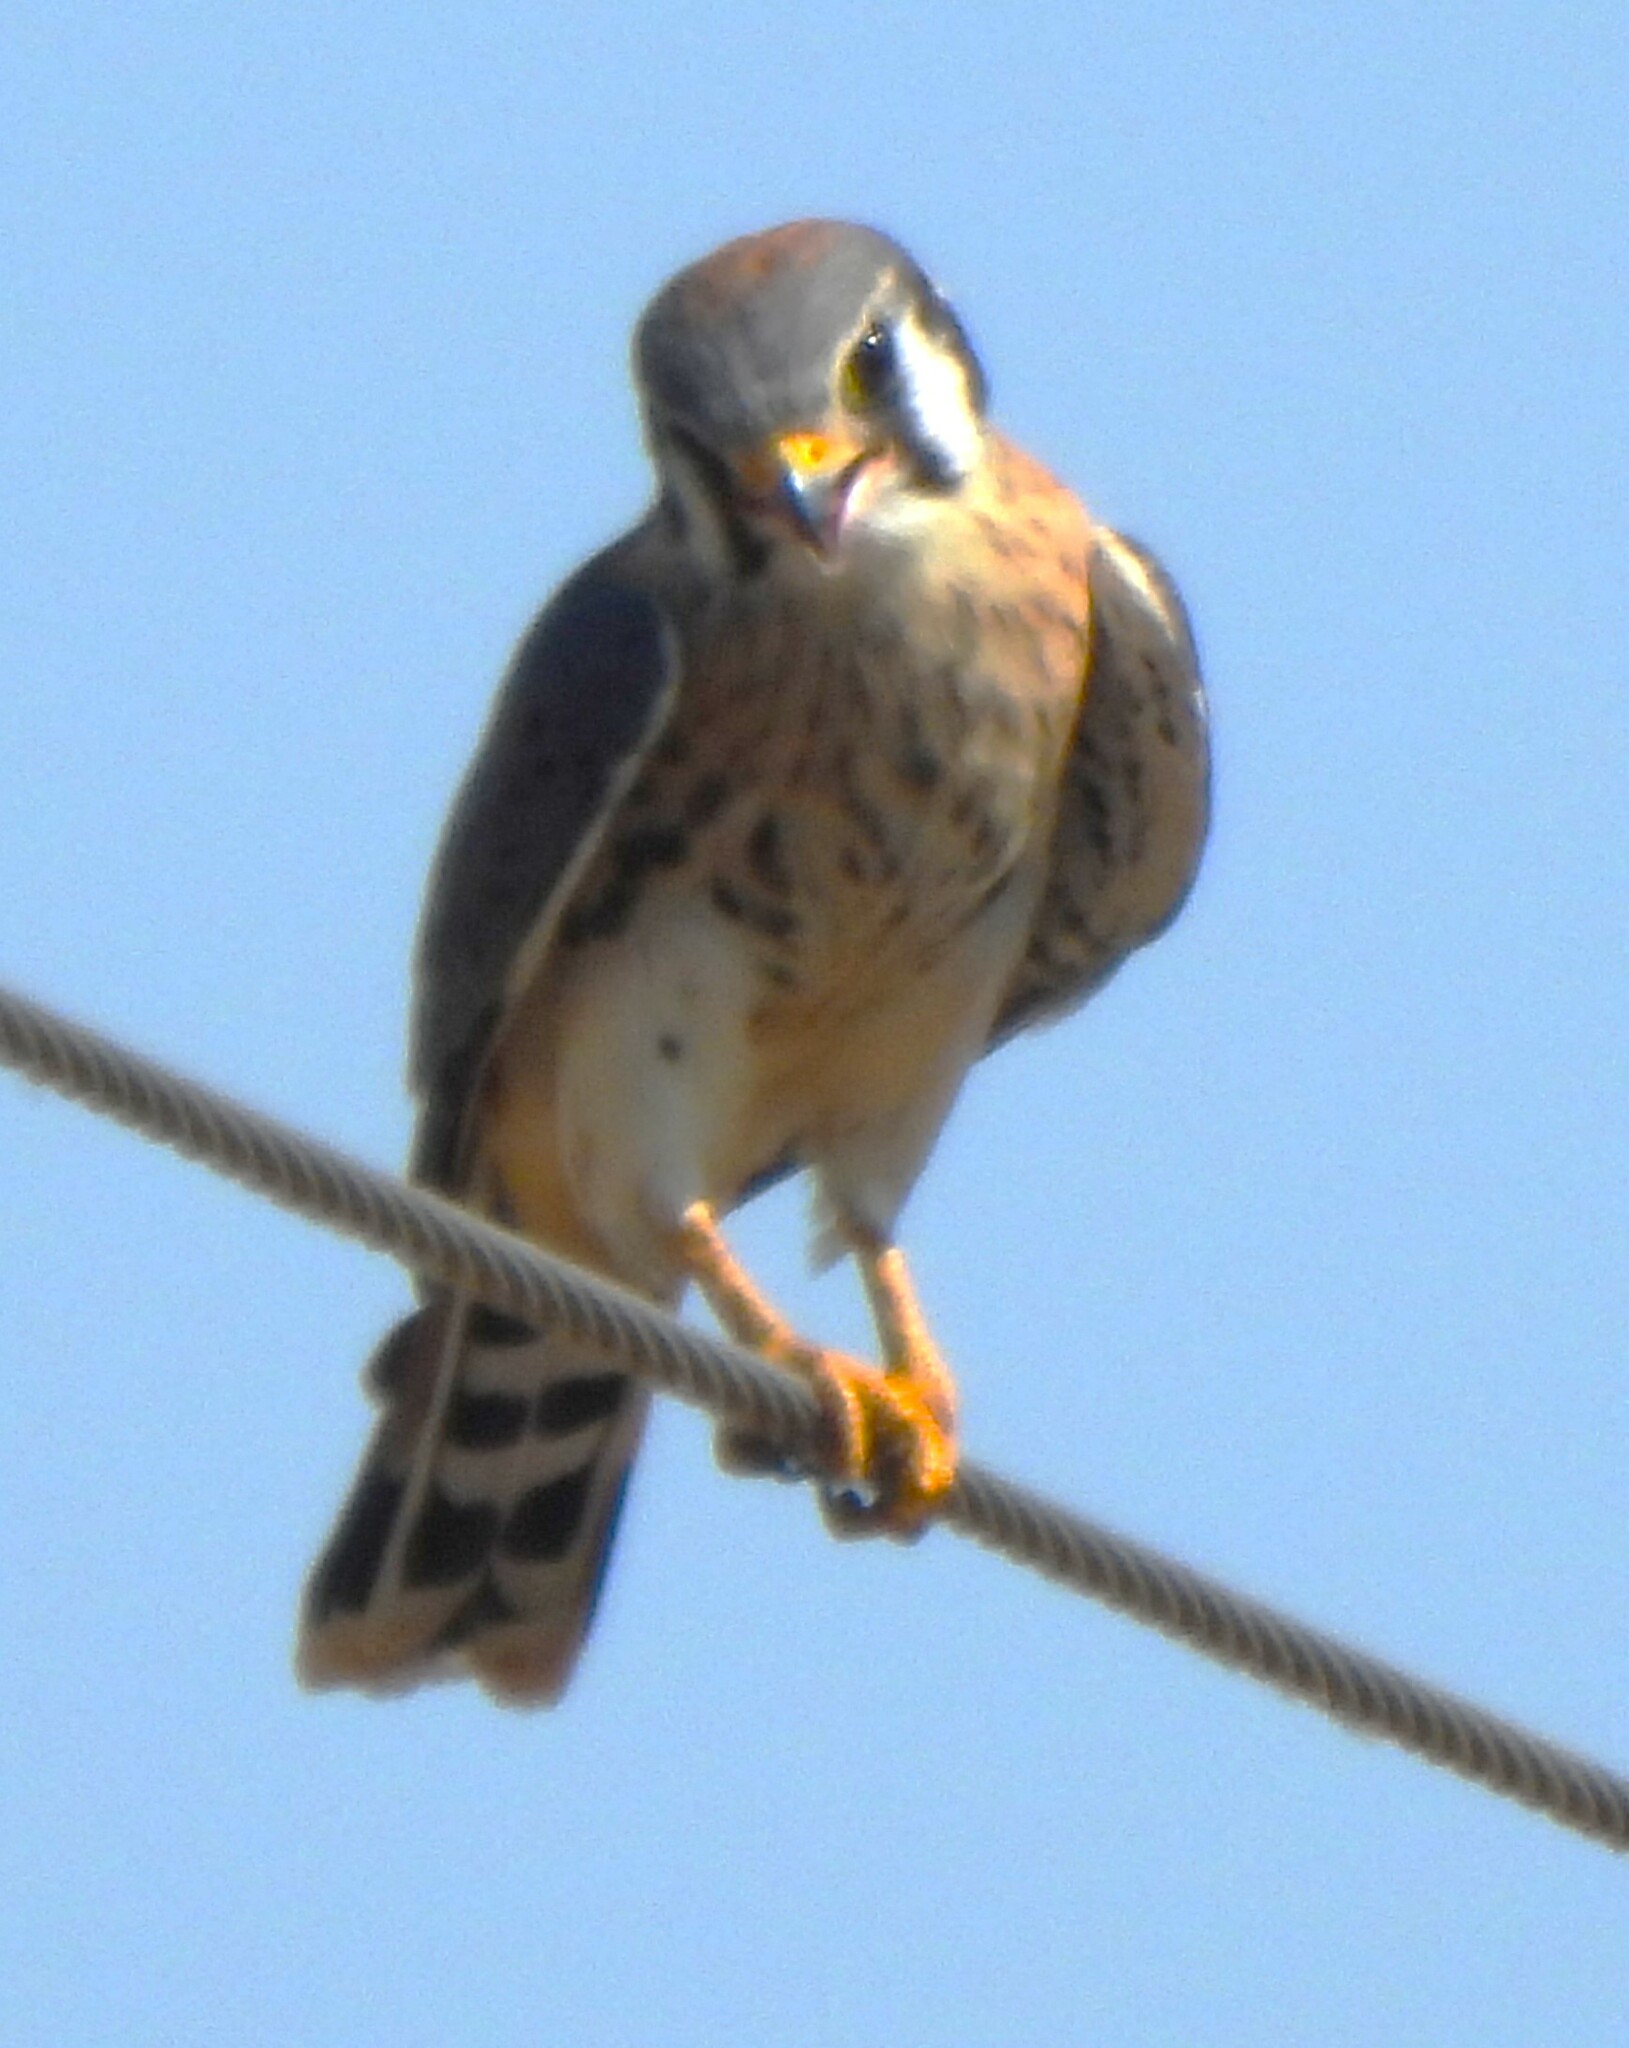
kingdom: Animalia
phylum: Chordata
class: Aves
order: Falconiformes
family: Falconidae
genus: Falco
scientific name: Falco sparverius
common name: American kestrel
